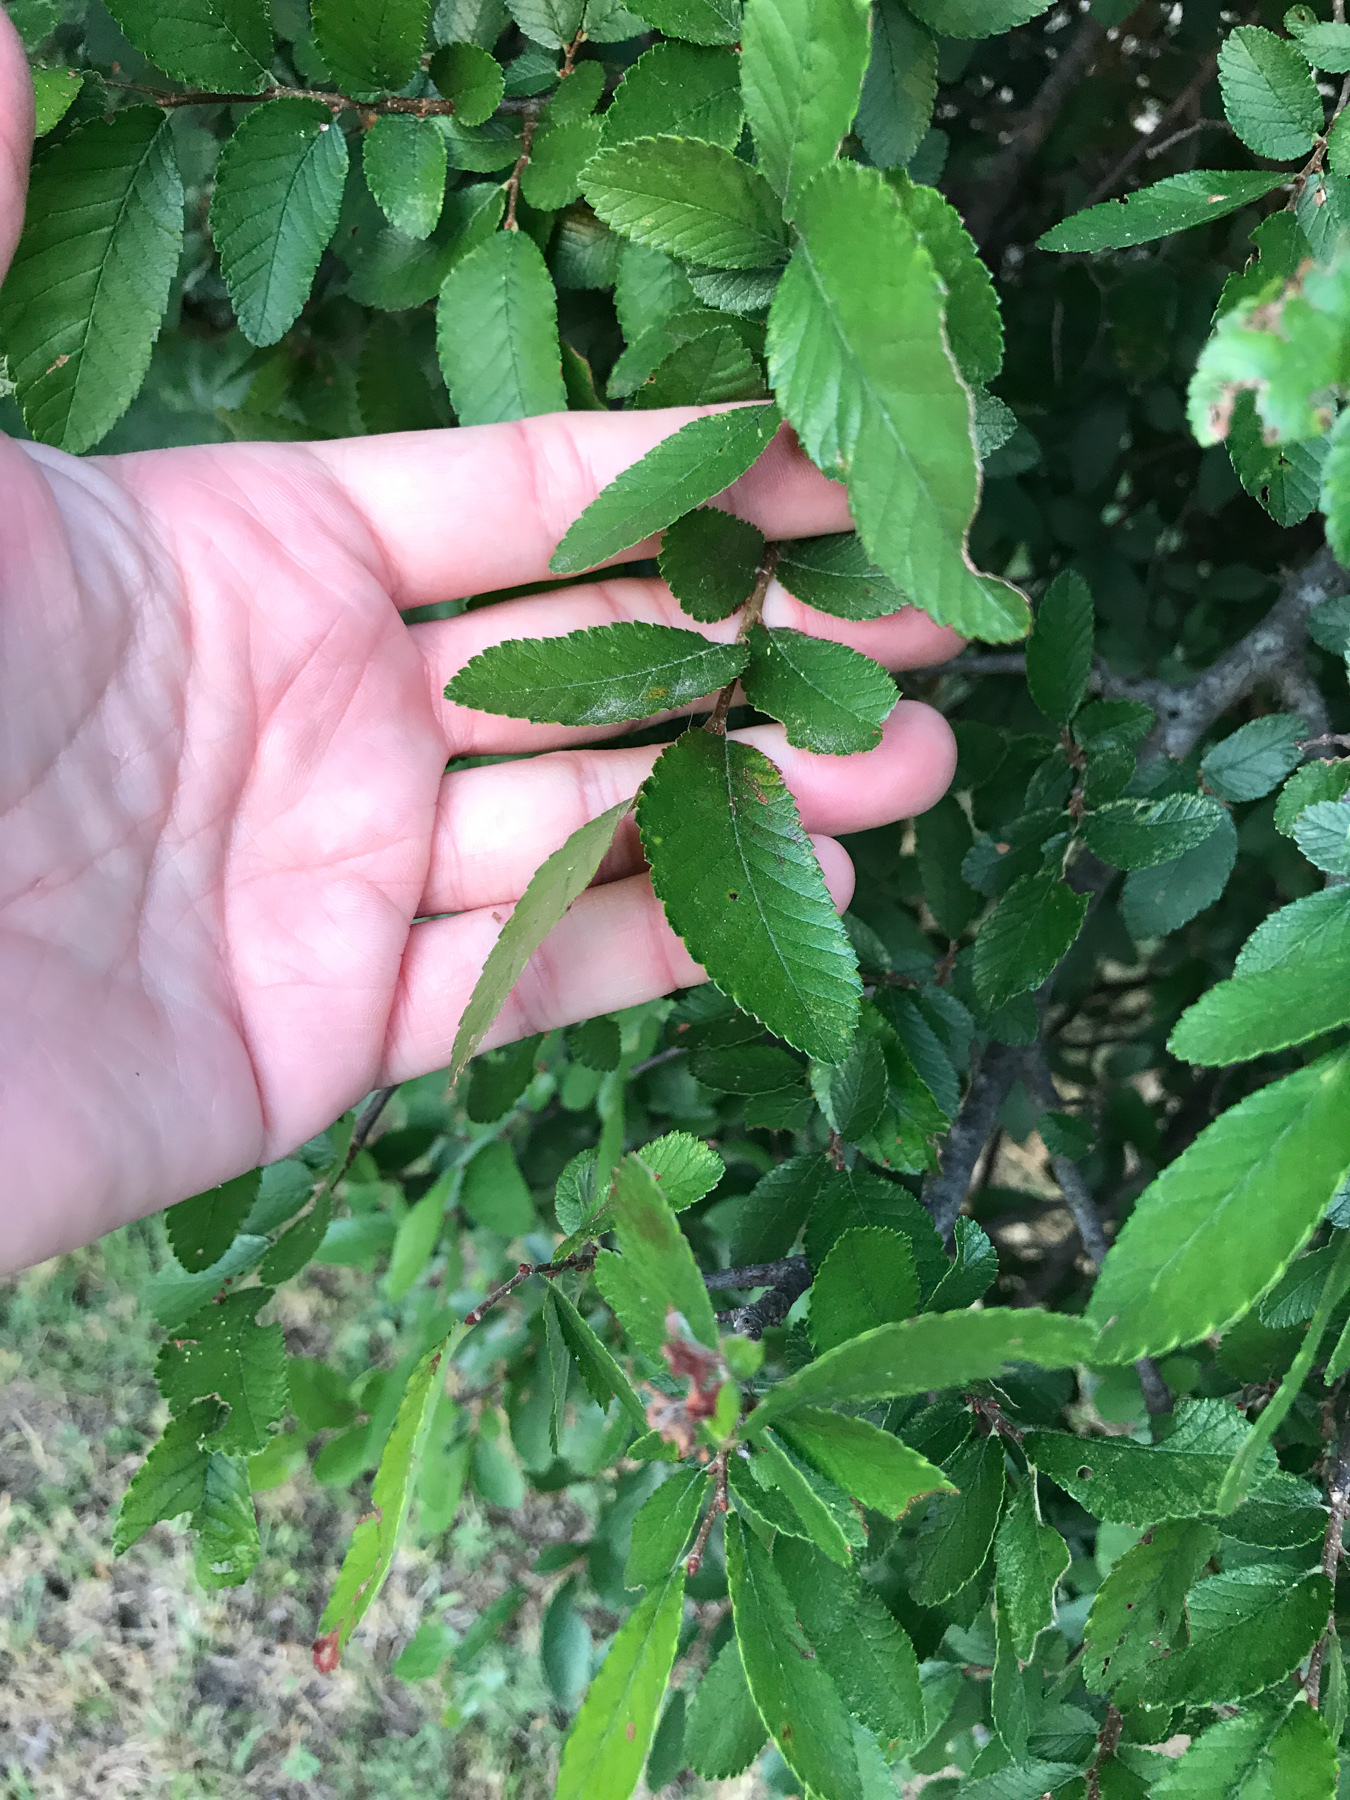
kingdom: Plantae
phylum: Tracheophyta
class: Magnoliopsida
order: Rosales
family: Ulmaceae
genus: Ulmus
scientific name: Ulmus crassifolia
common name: Basket elm
